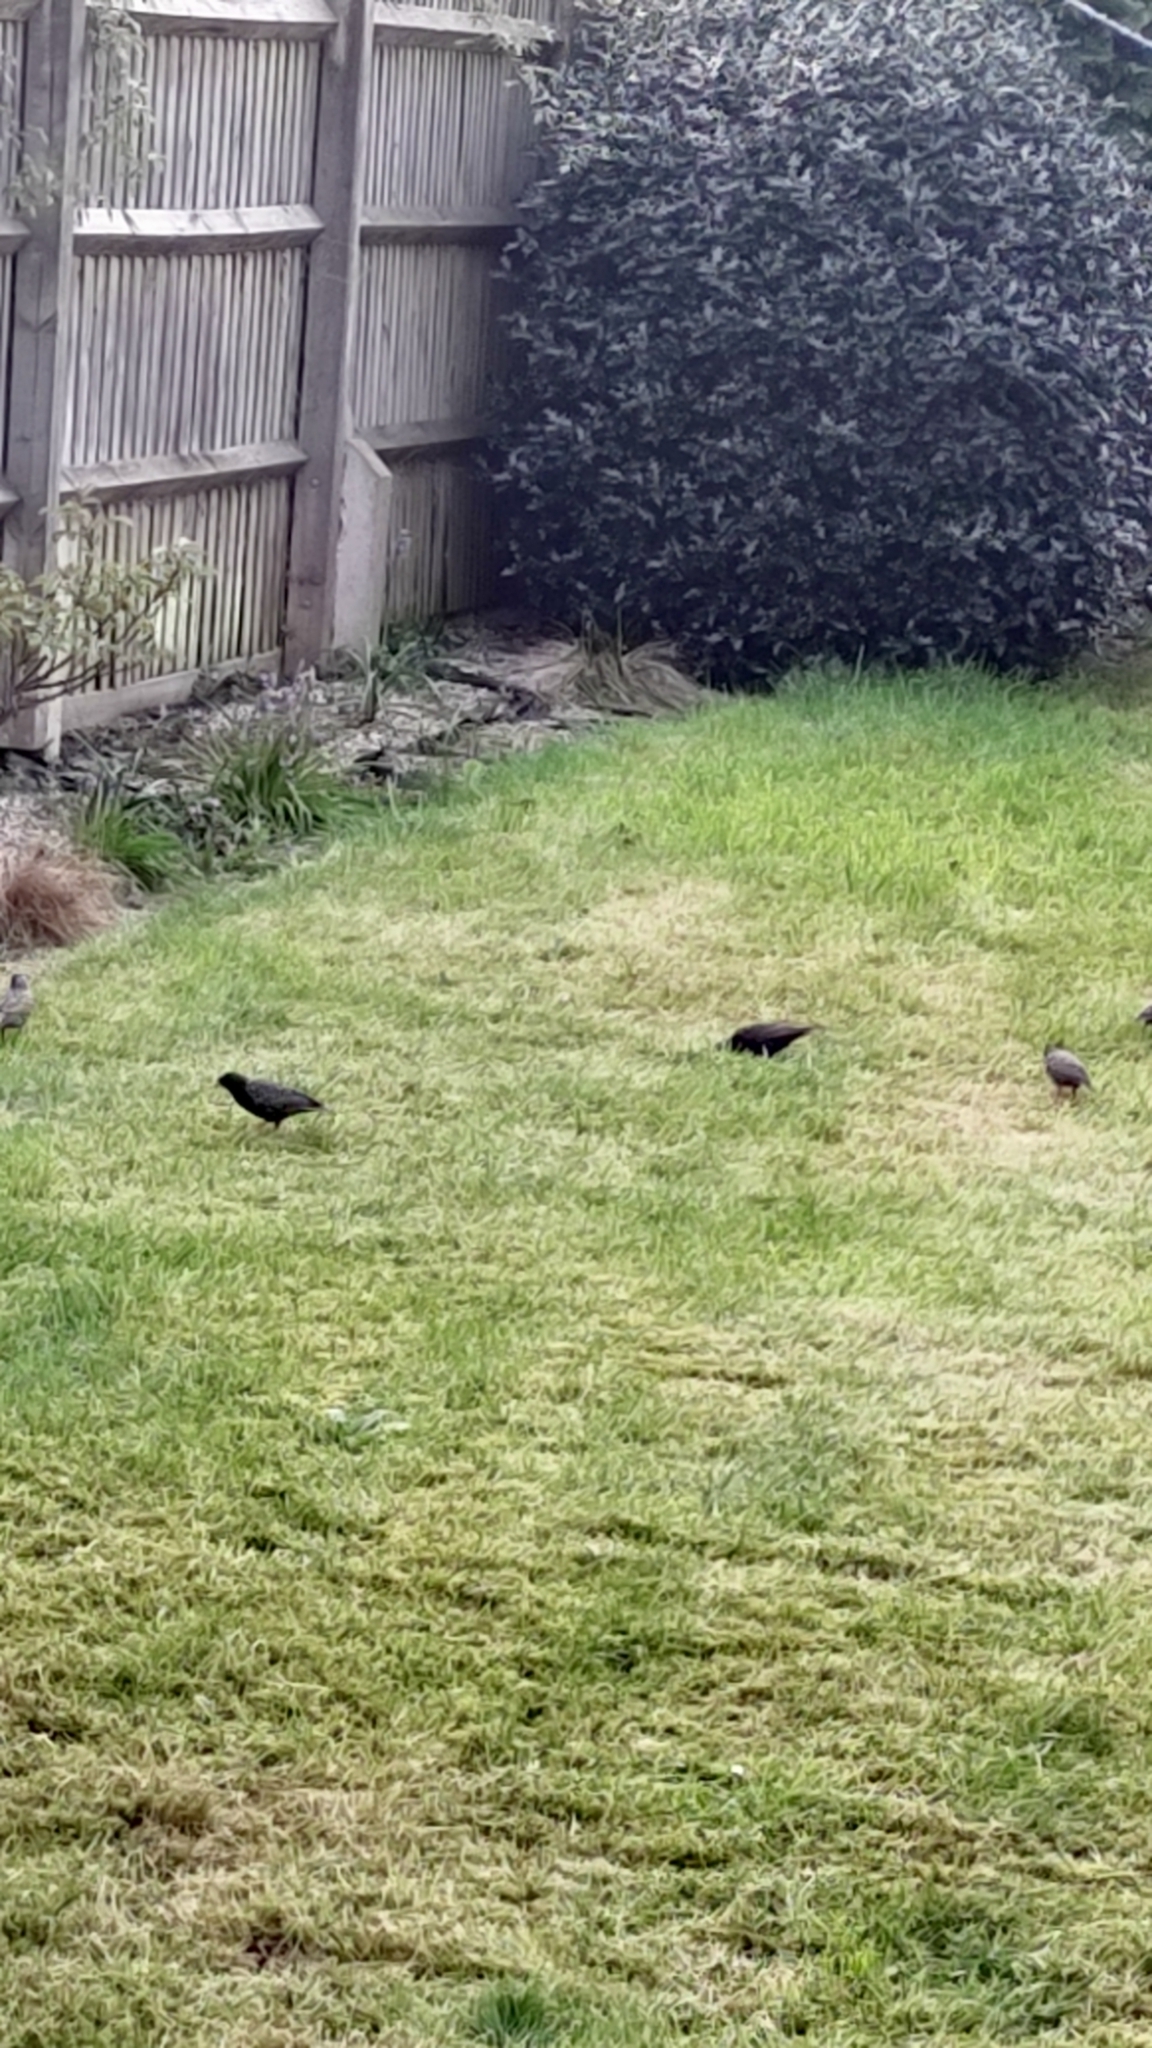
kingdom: Animalia
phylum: Chordata
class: Aves
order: Passeriformes
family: Turdidae
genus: Turdus
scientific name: Turdus merula
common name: Common blackbird
